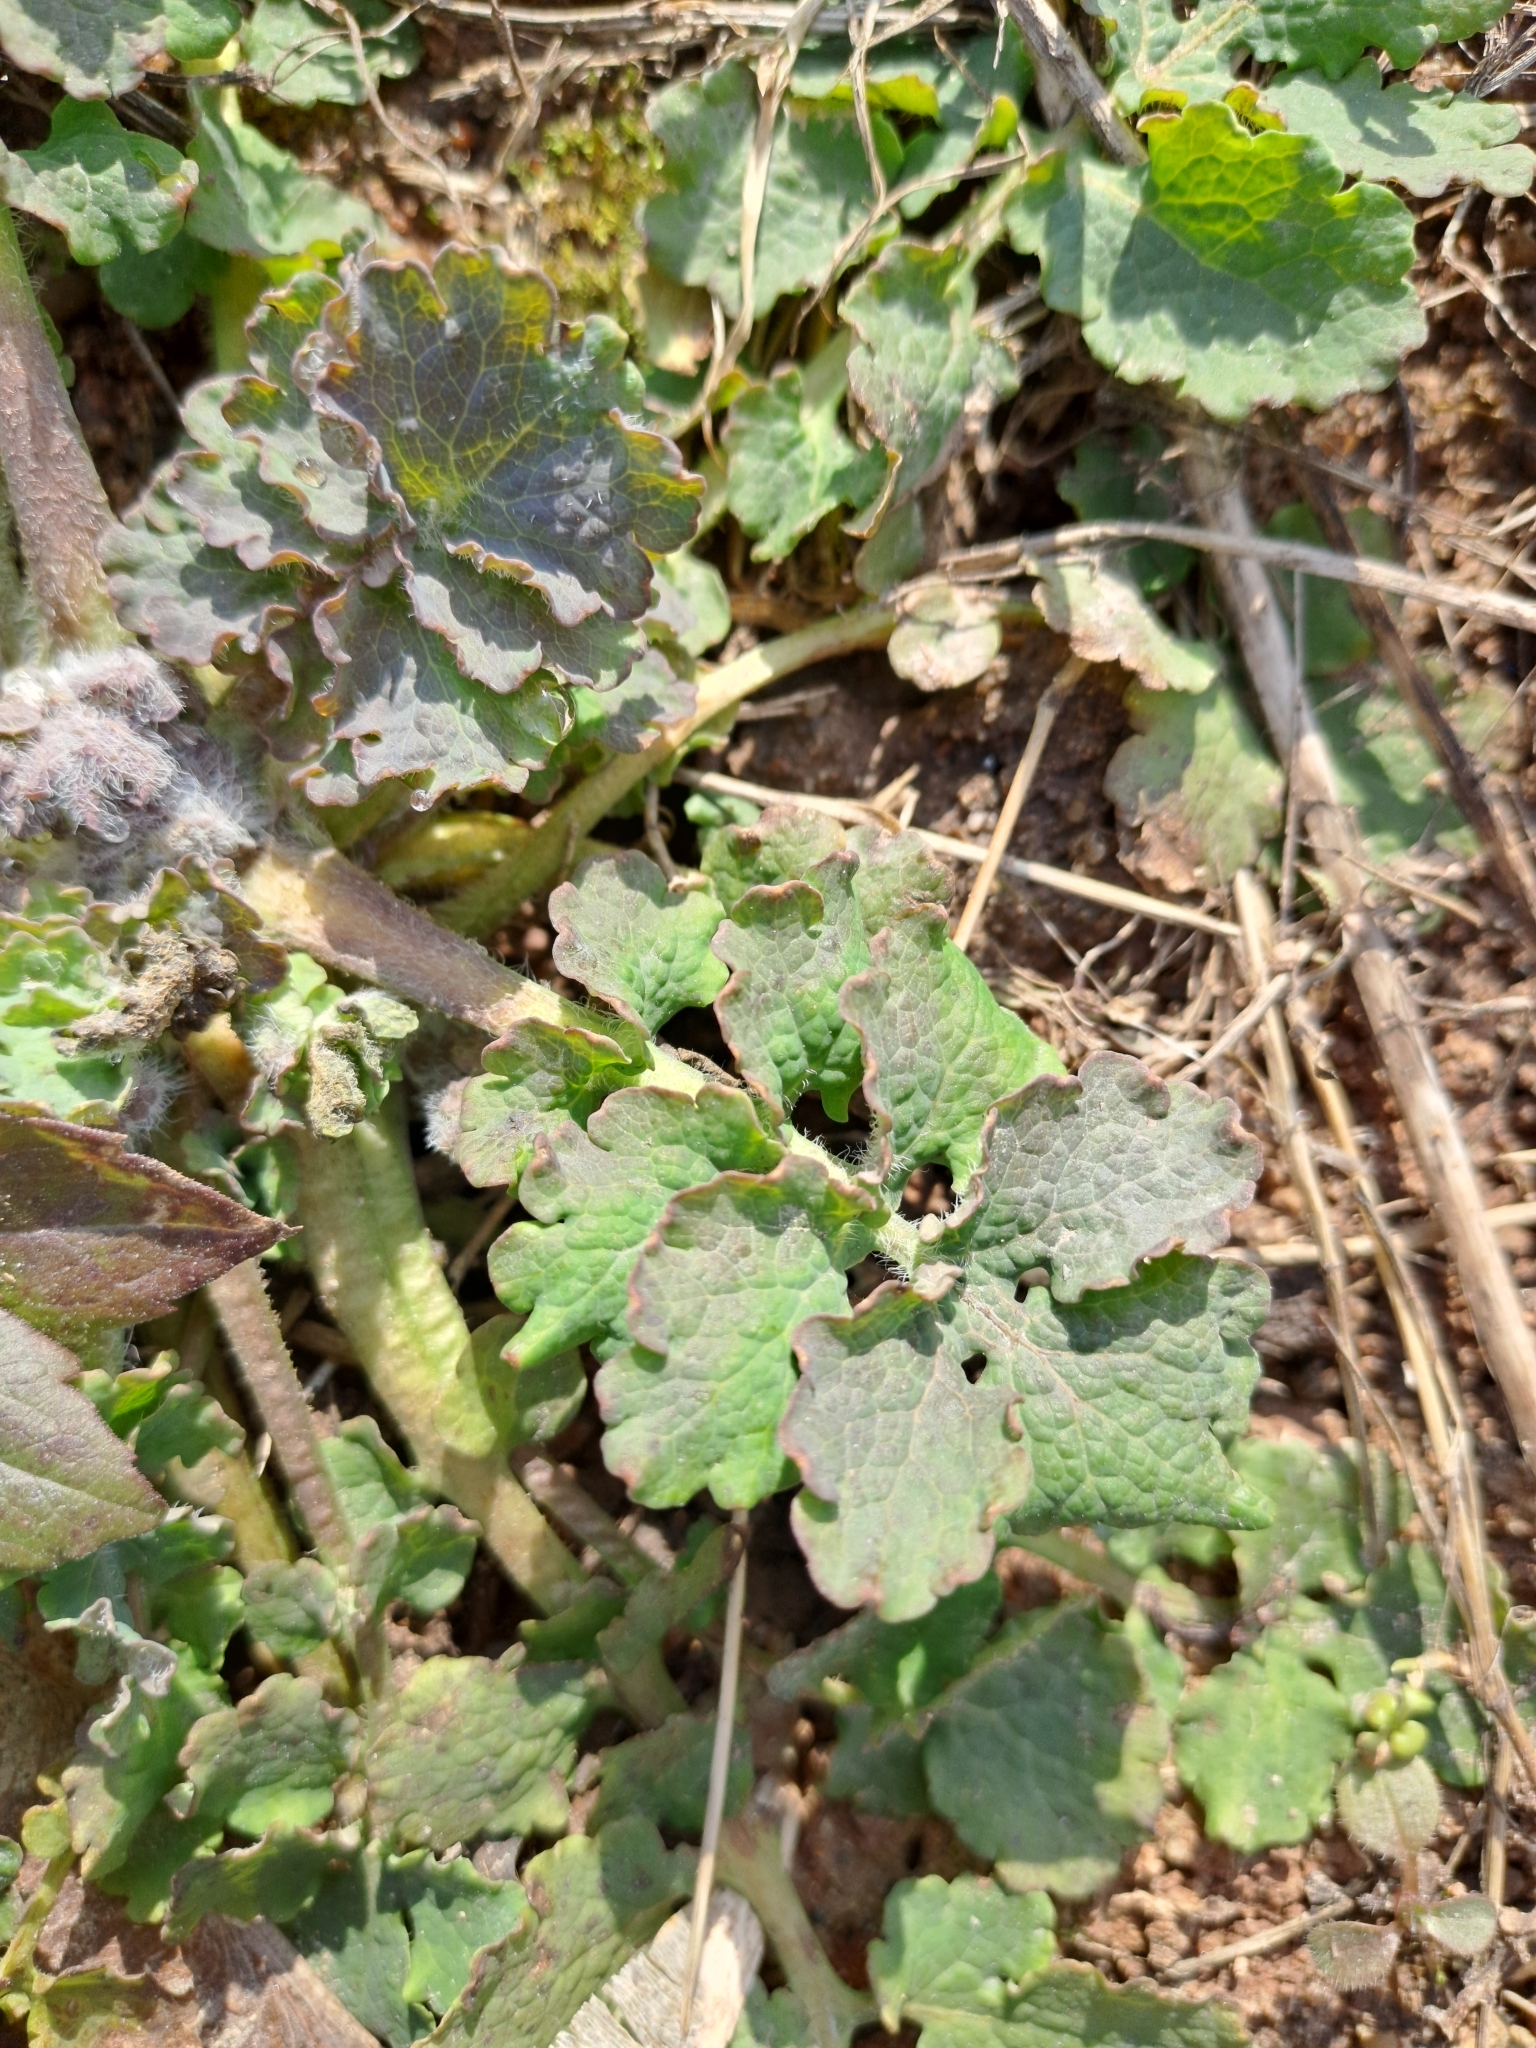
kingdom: Plantae
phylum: Tracheophyta
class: Magnoliopsida
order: Ranunculales
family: Papaveraceae
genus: Chelidonium
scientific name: Chelidonium majus
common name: Greater celandine
